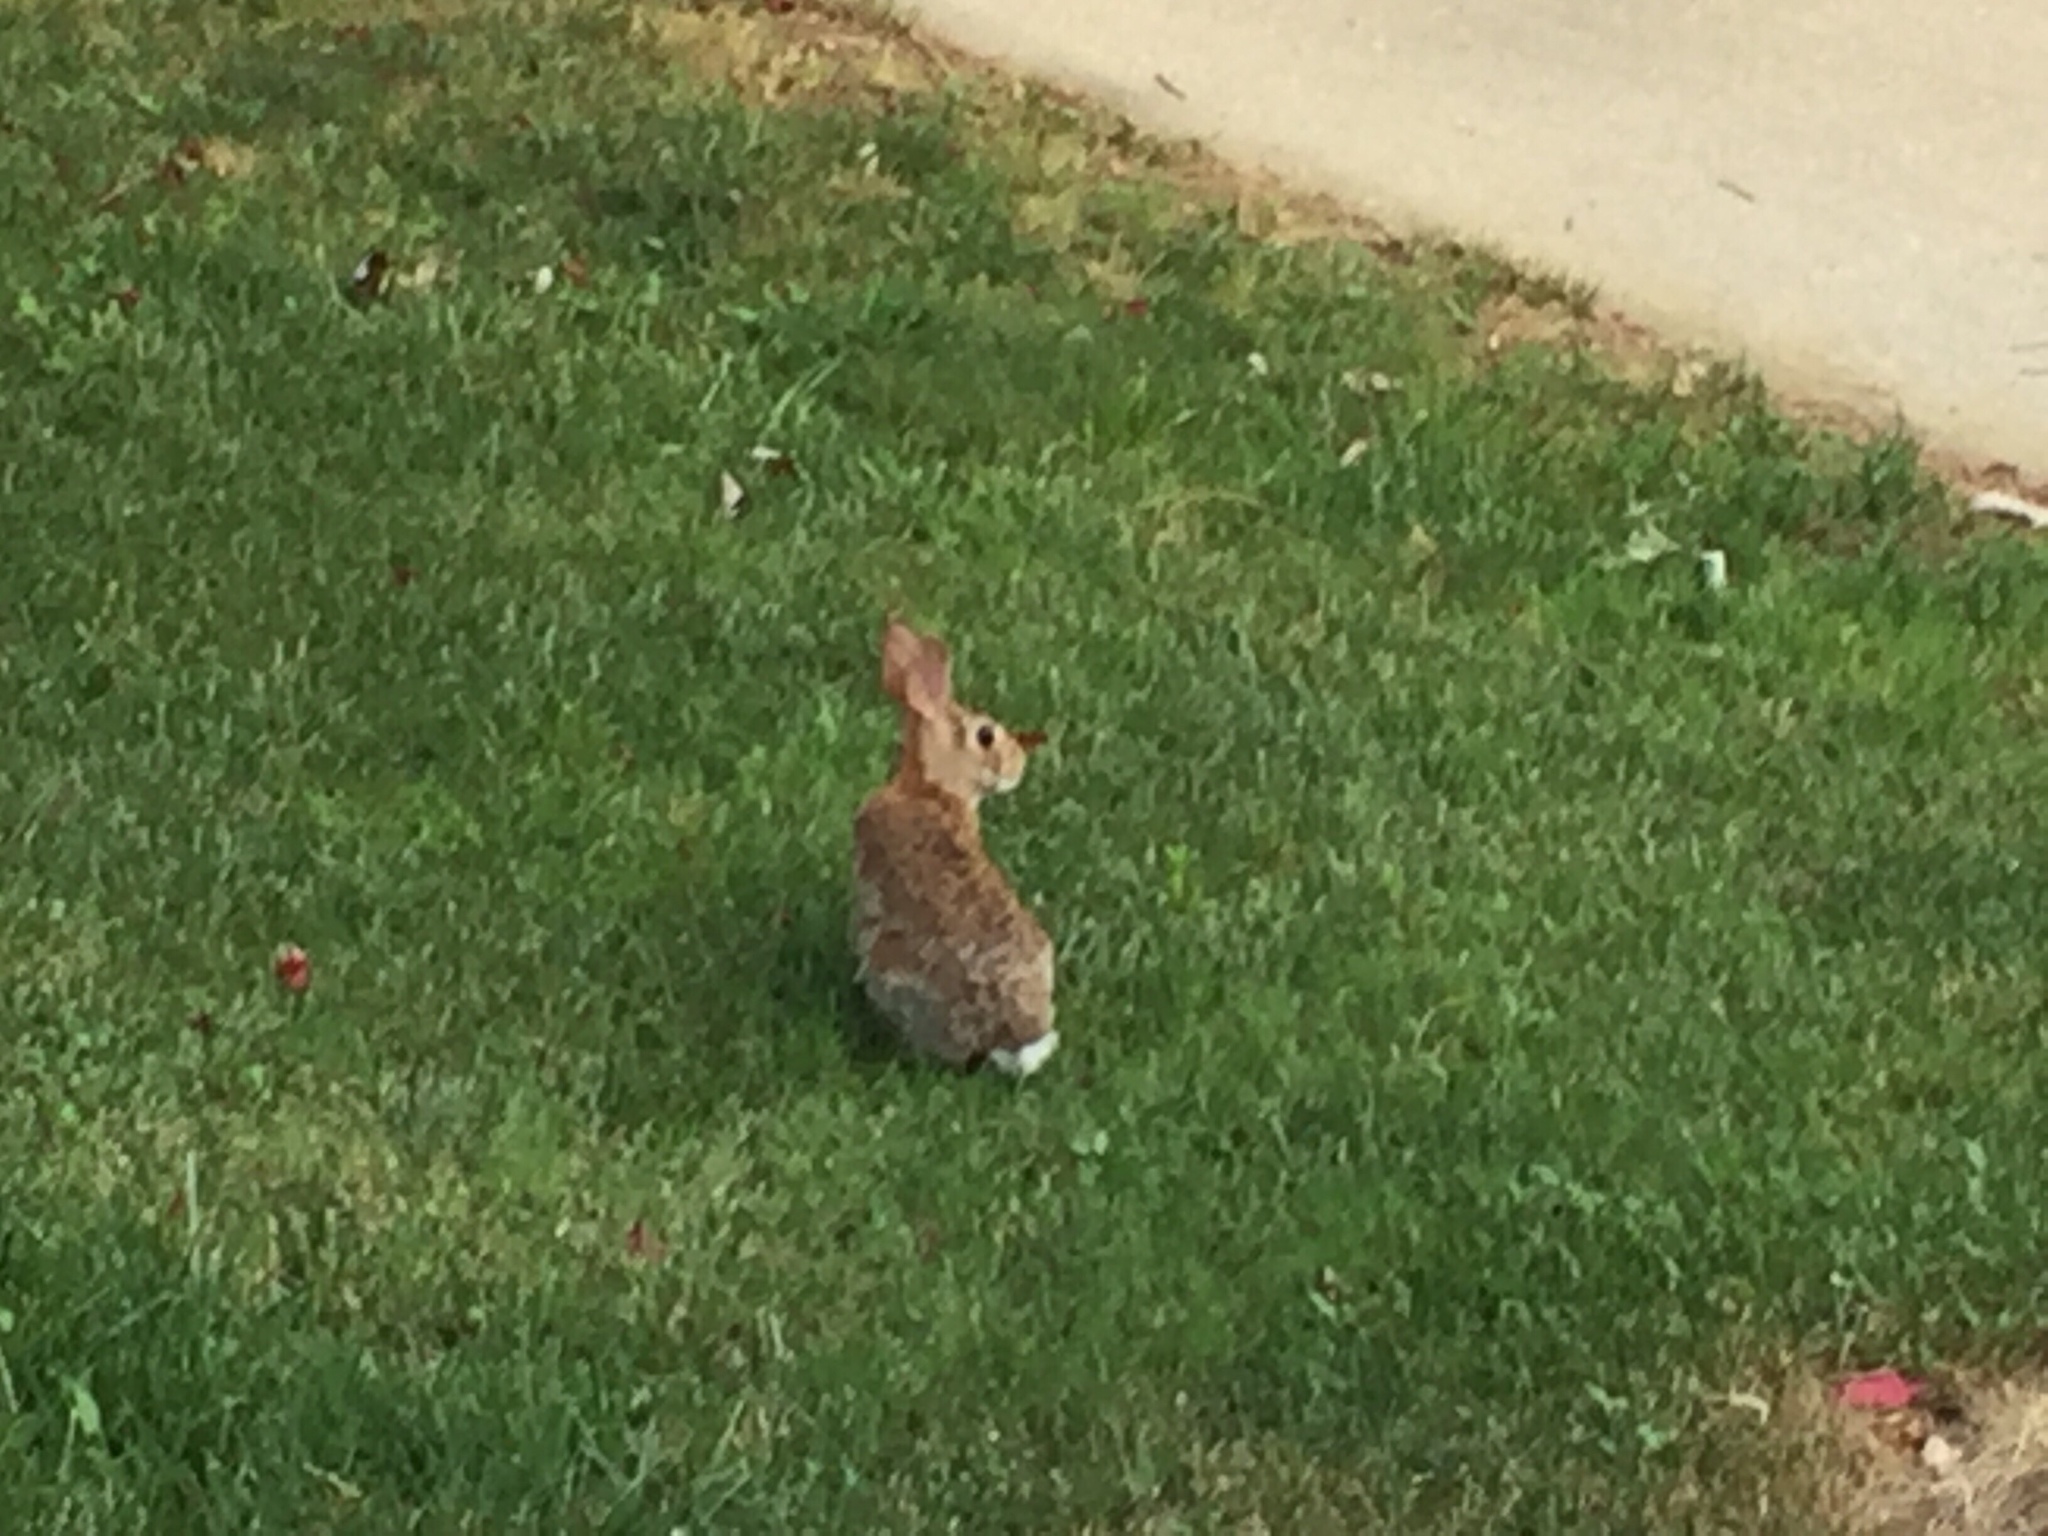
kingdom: Animalia
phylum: Chordata
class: Mammalia
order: Lagomorpha
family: Leporidae
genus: Sylvilagus
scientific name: Sylvilagus floridanus
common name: Eastern cottontail
